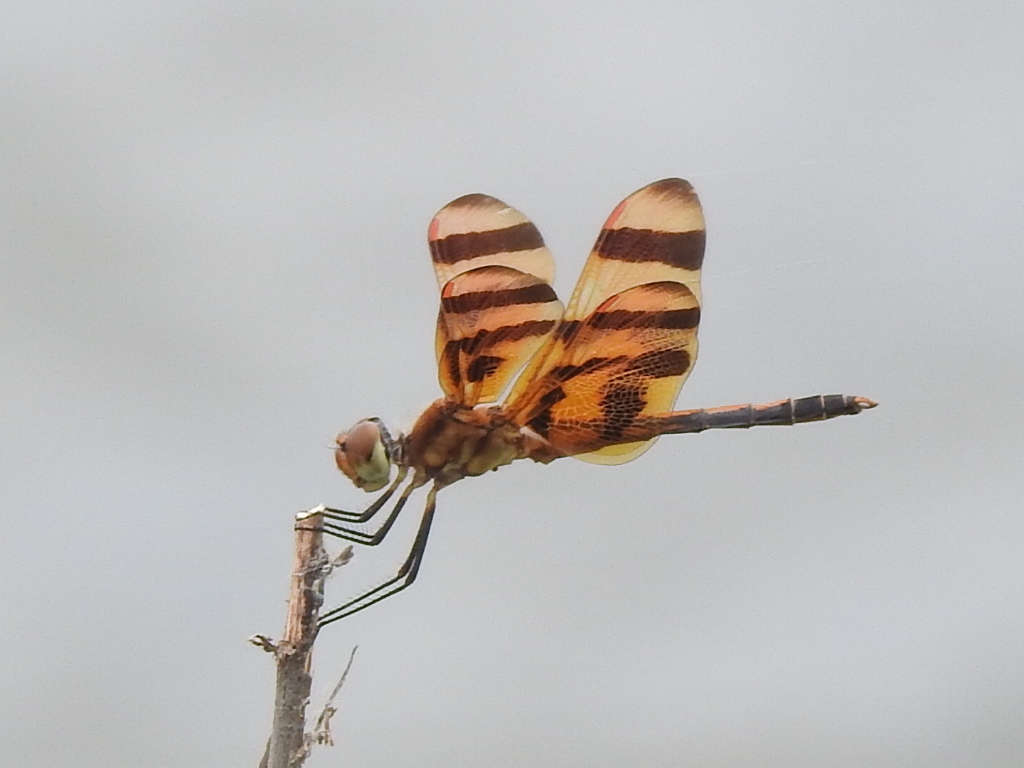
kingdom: Animalia
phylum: Arthropoda
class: Insecta
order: Odonata
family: Libellulidae
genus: Celithemis
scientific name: Celithemis eponina
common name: Halloween pennant
